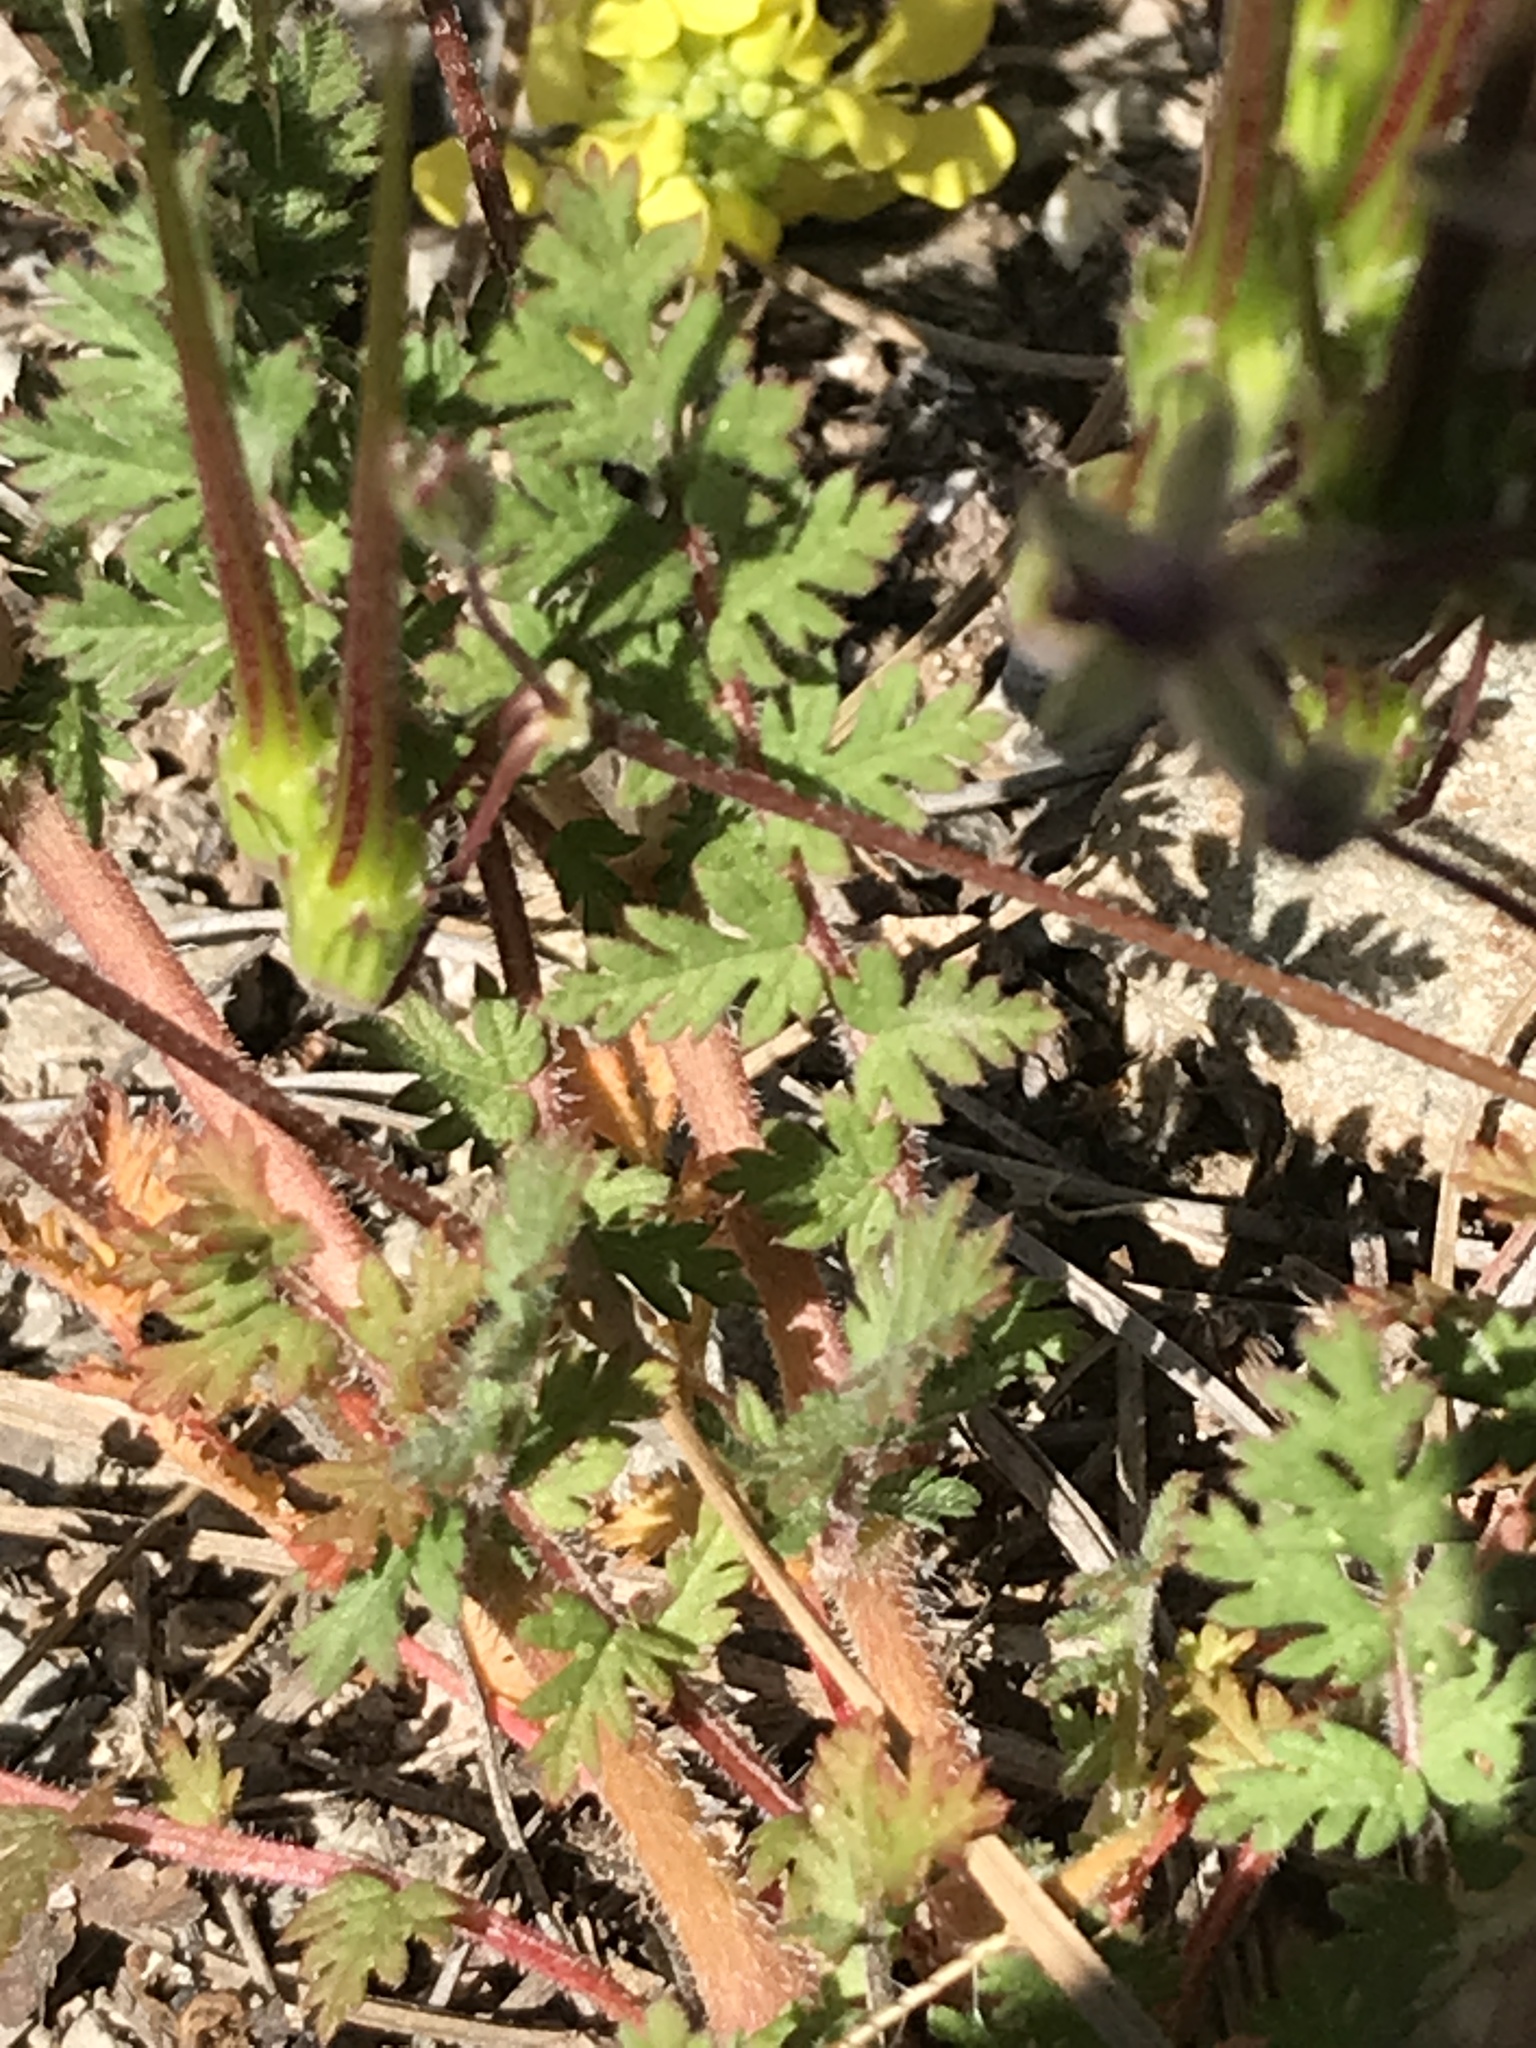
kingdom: Plantae
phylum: Tracheophyta
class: Magnoliopsida
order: Geraniales
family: Geraniaceae
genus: Erodium
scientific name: Erodium cicutarium
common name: Common stork's-bill
